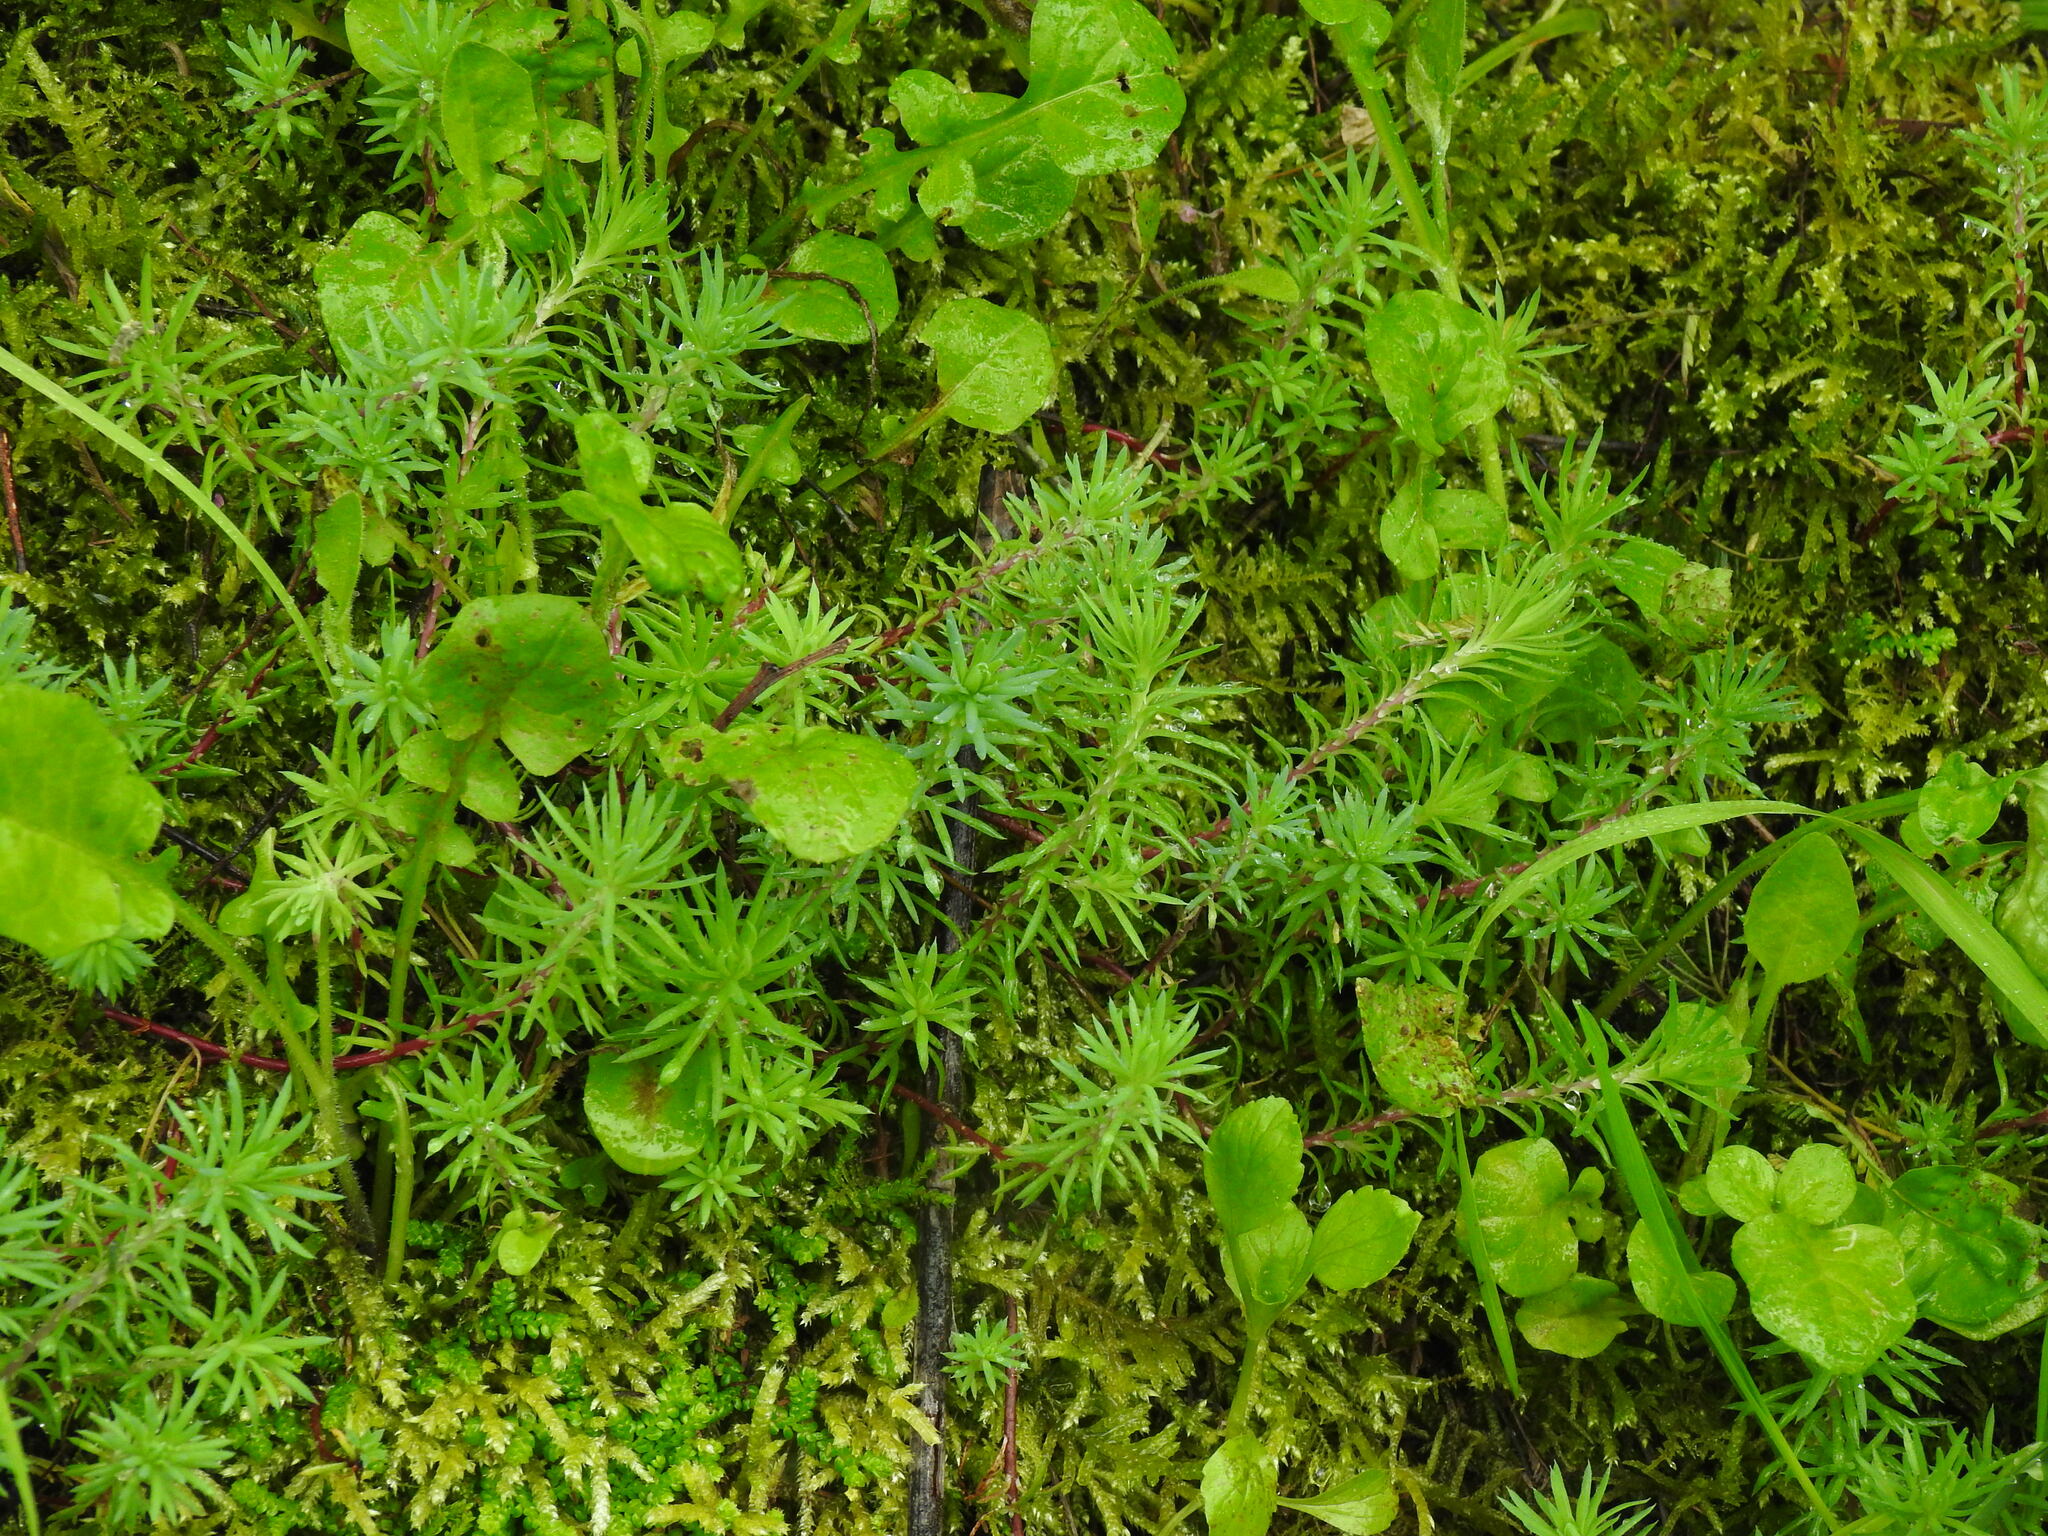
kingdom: Plantae
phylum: Tracheophyta
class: Magnoliopsida
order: Saxifragales
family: Crassulaceae
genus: Petrosedum
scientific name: Petrosedum forsterianum
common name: Forster's stonecrop
